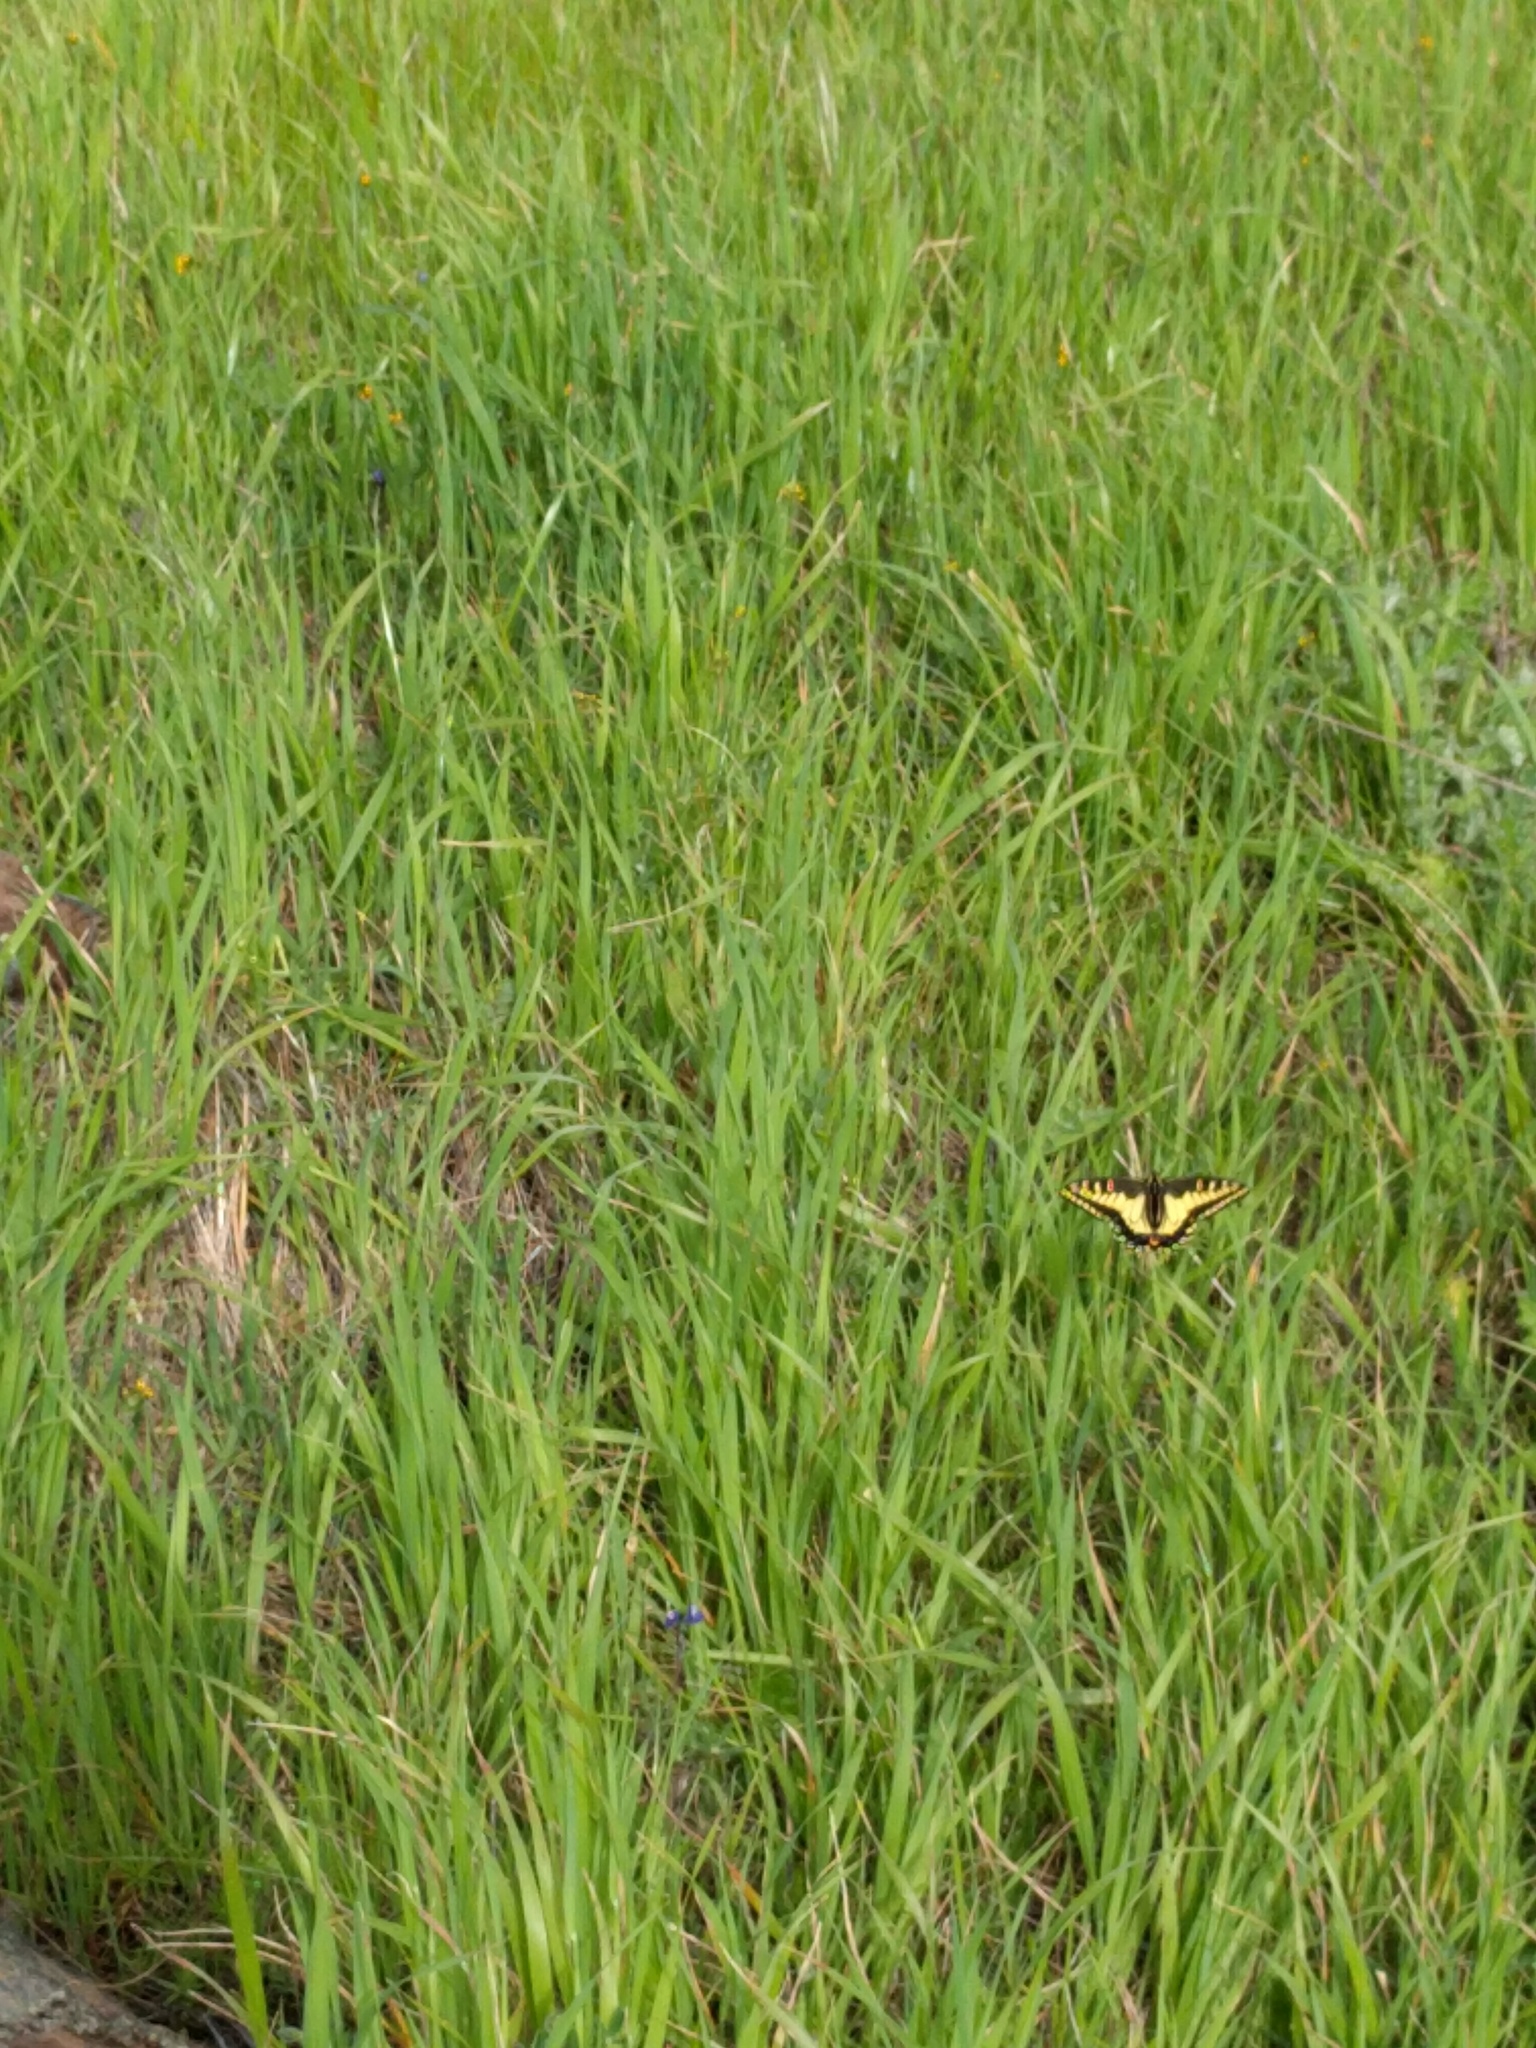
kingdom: Animalia
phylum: Arthropoda
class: Insecta
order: Lepidoptera
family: Papilionidae
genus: Papilio
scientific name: Papilio zelicaon
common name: Anise swallowtail
